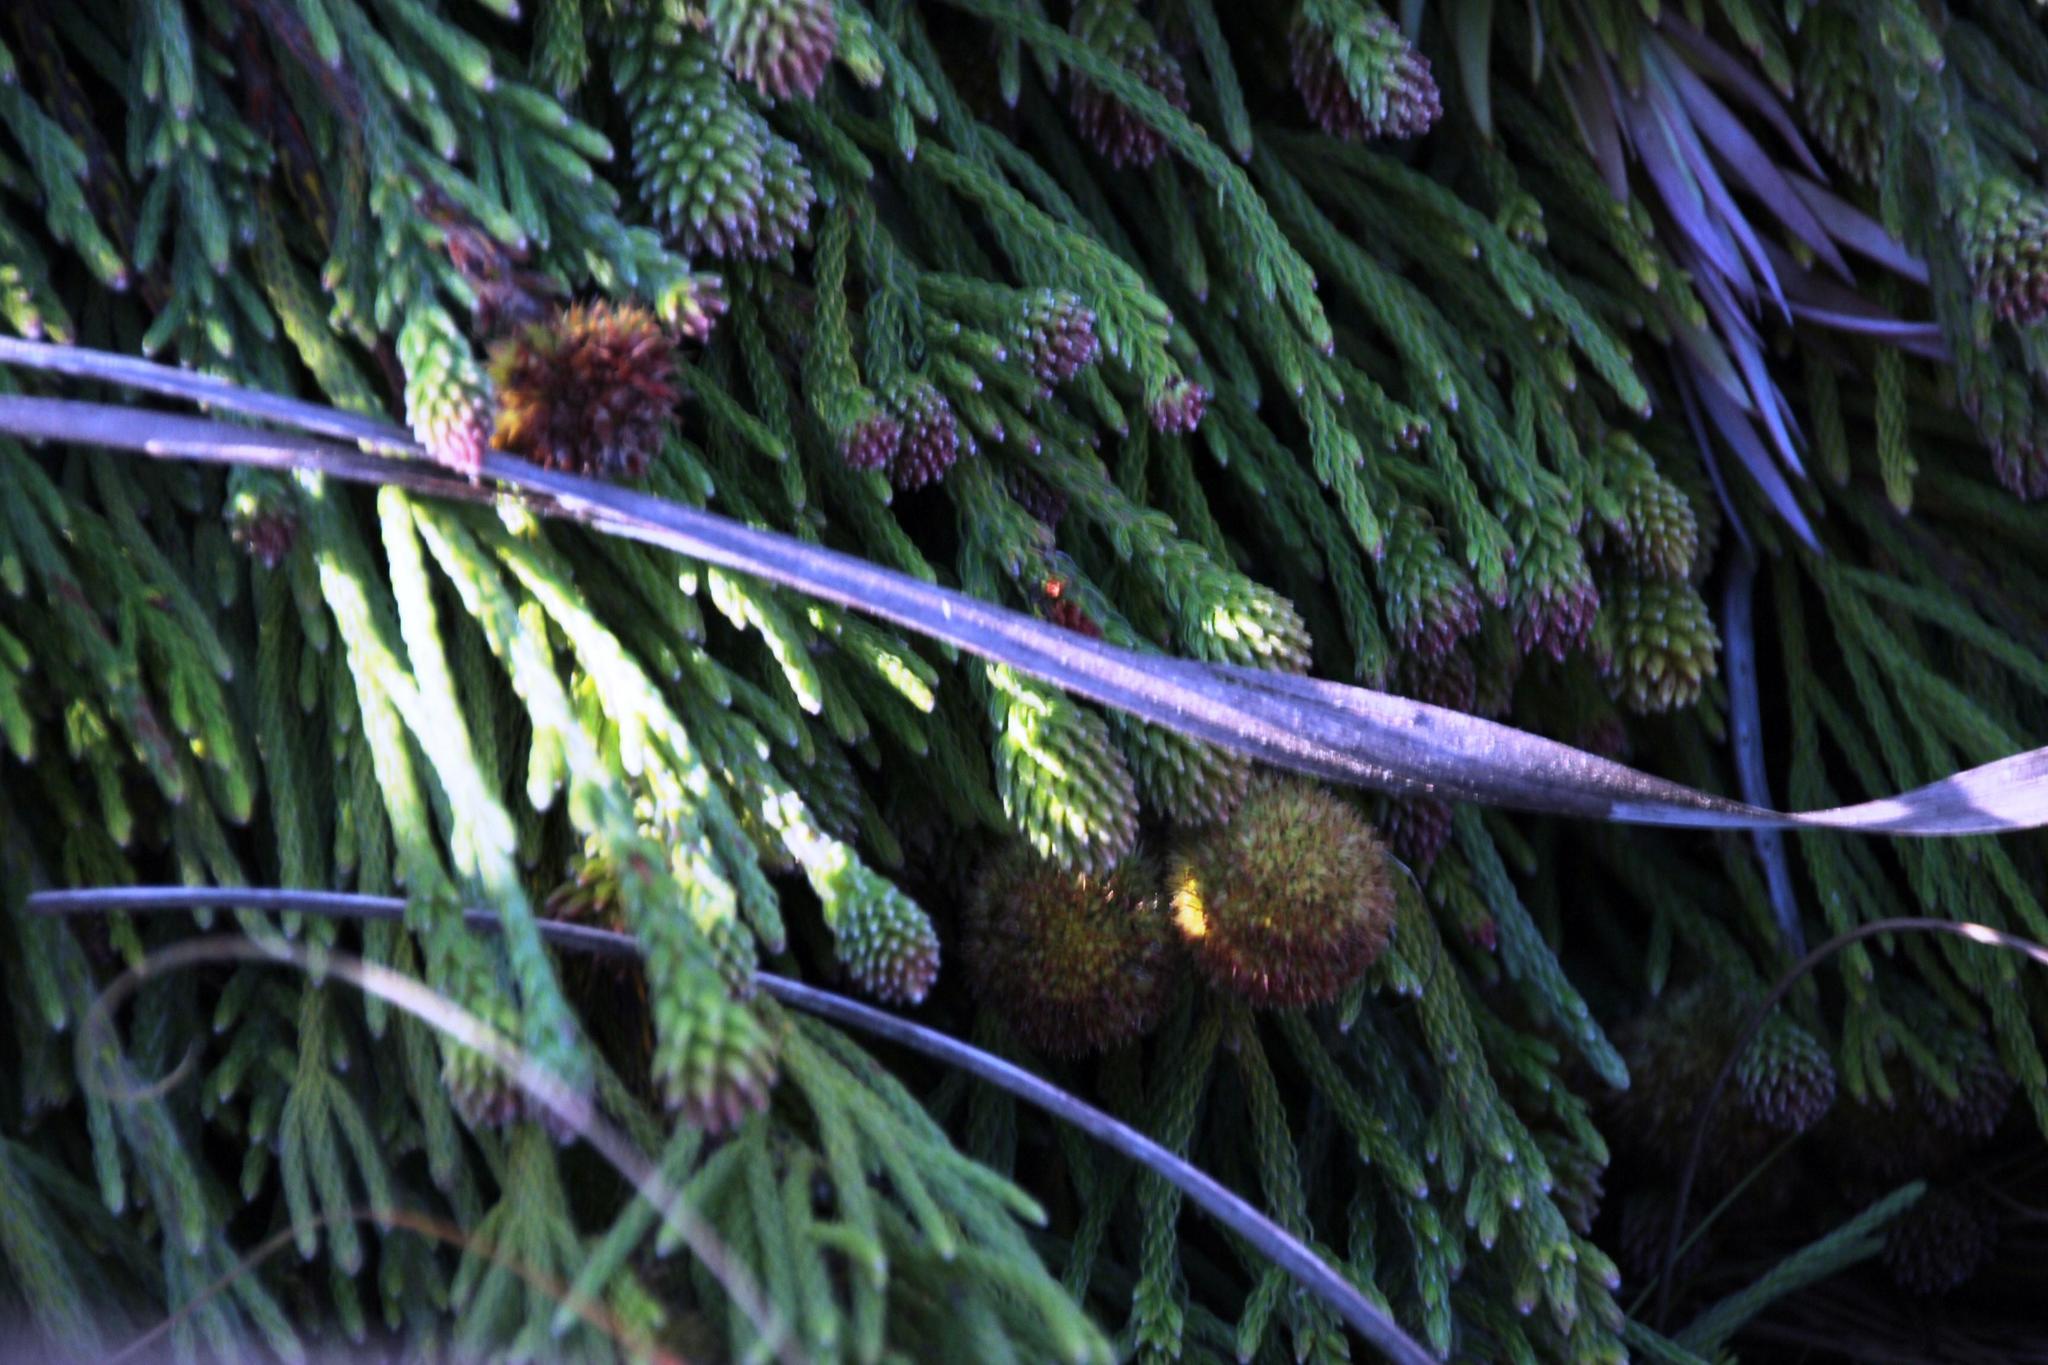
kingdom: Plantae
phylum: Tracheophyta
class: Magnoliopsida
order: Bruniales
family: Bruniaceae
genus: Brunia
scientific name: Brunia fragarioides
